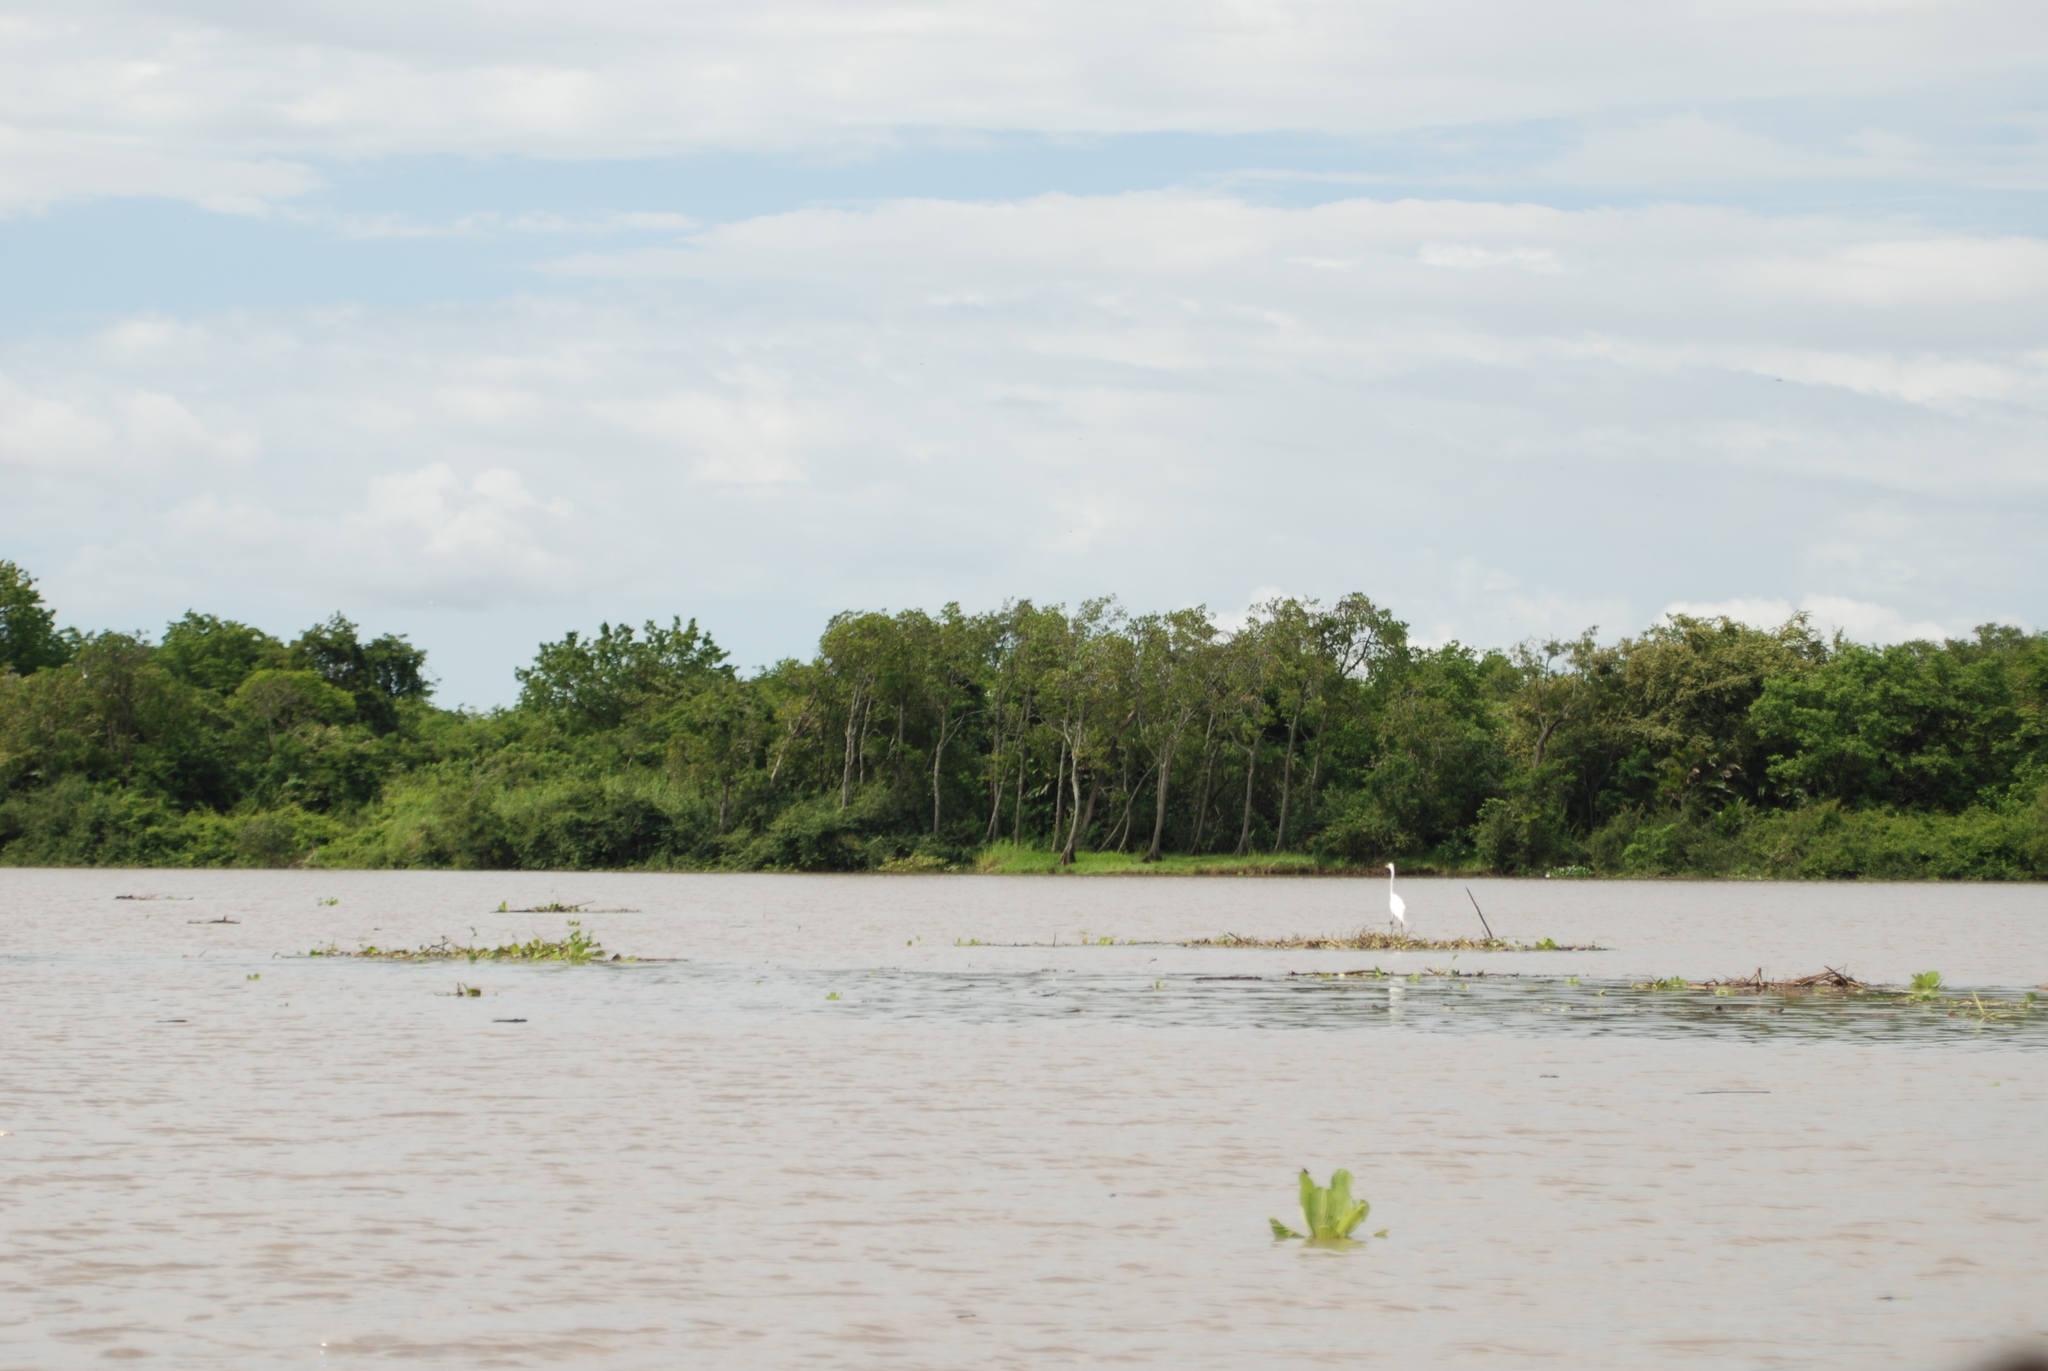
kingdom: Animalia
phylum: Chordata
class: Aves
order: Pelecaniformes
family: Ardeidae
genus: Ardea
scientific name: Ardea alba
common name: Great egret
